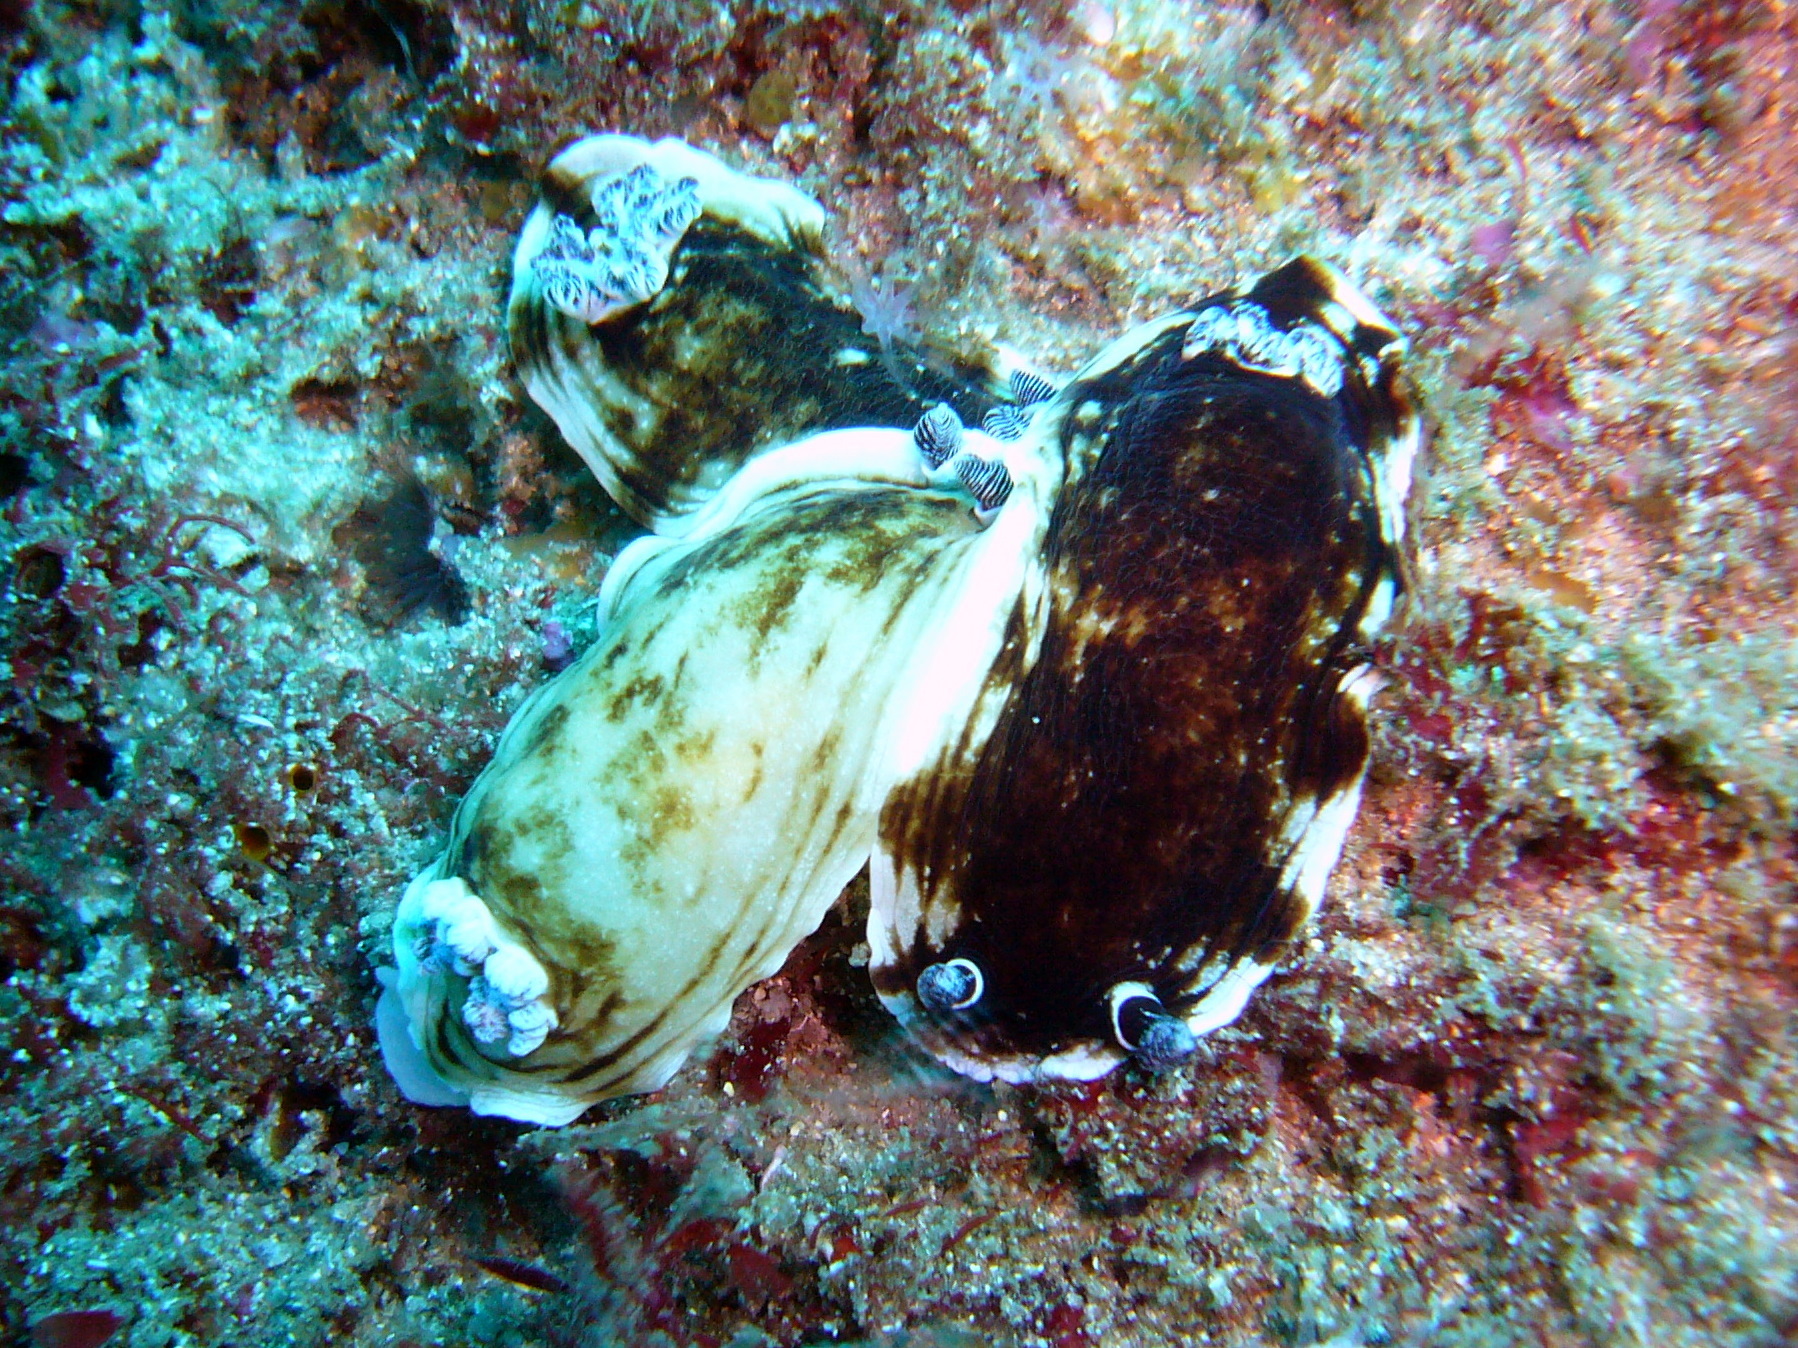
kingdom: Animalia
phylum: Mollusca
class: Gastropoda
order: Nudibranchia
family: Dorididae
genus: Aphelodoris
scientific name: Aphelodoris varia
